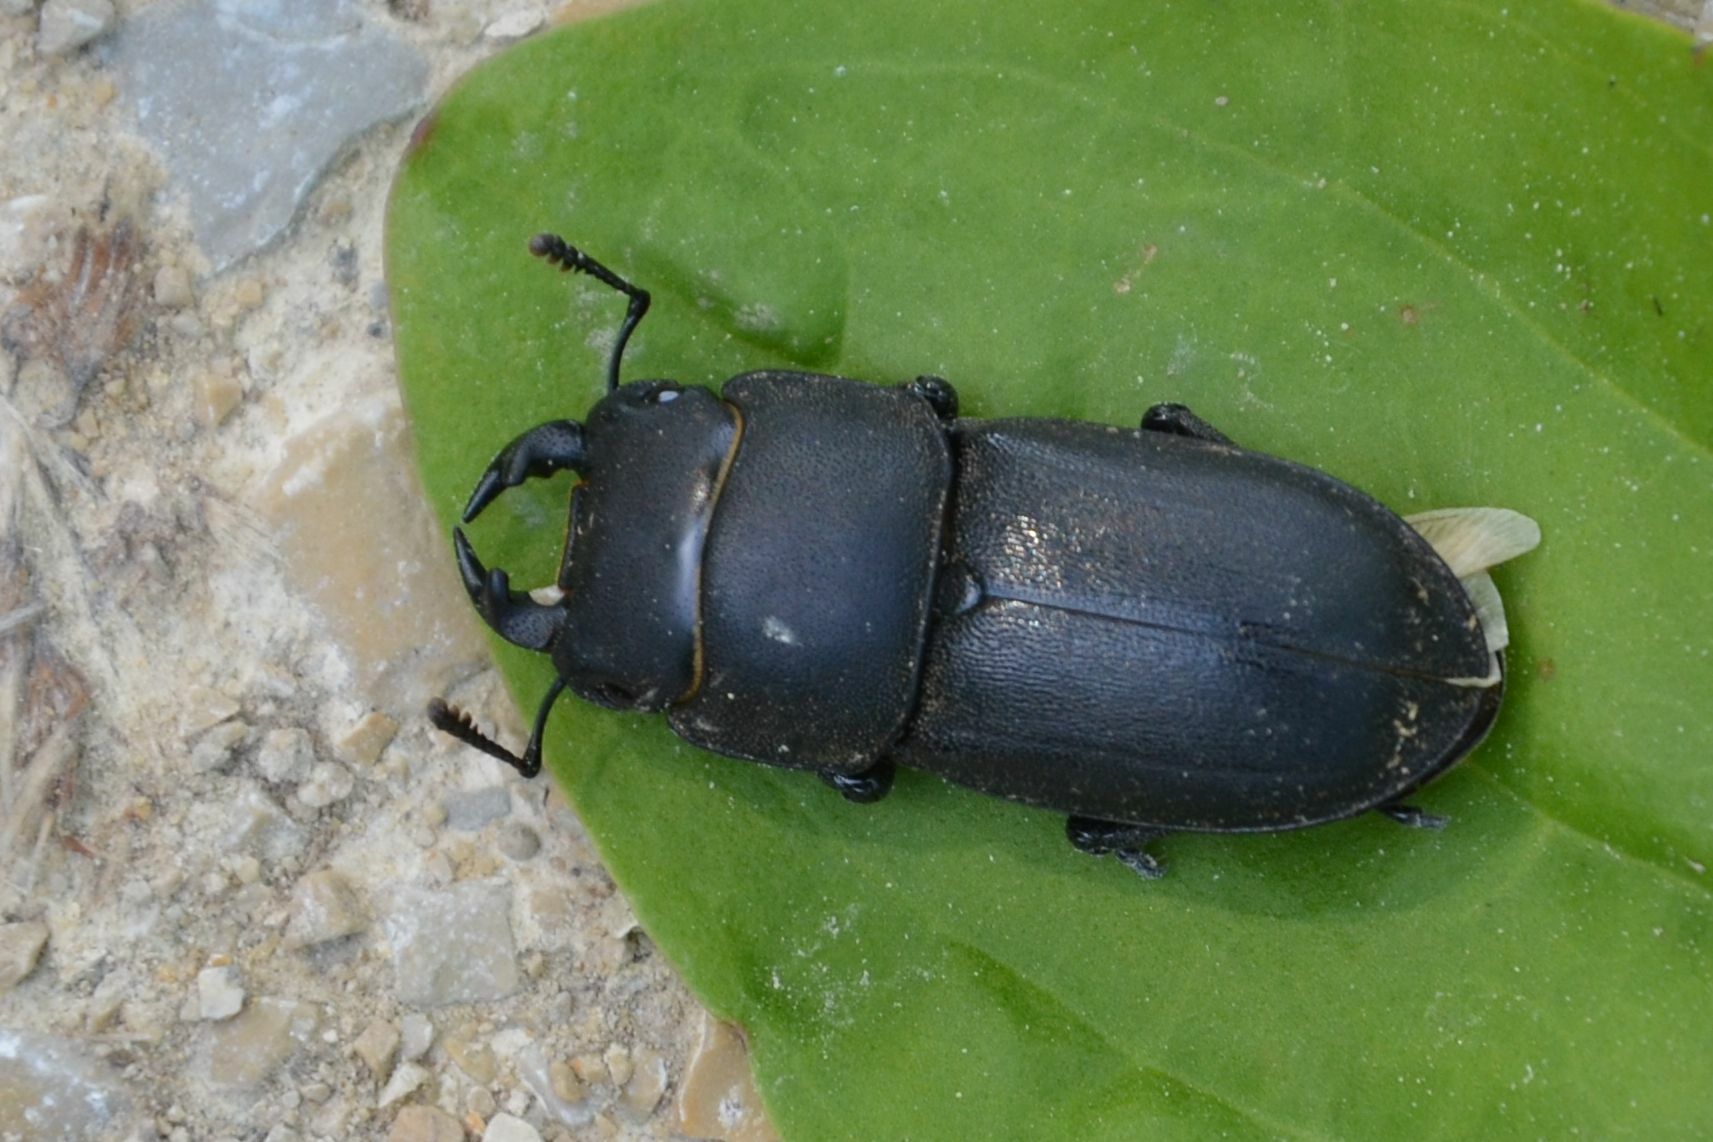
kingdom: Animalia
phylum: Arthropoda
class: Insecta
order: Coleoptera
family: Lucanidae
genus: Dorcus
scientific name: Dorcus parallelipipedus
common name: Lesser stag beetle
